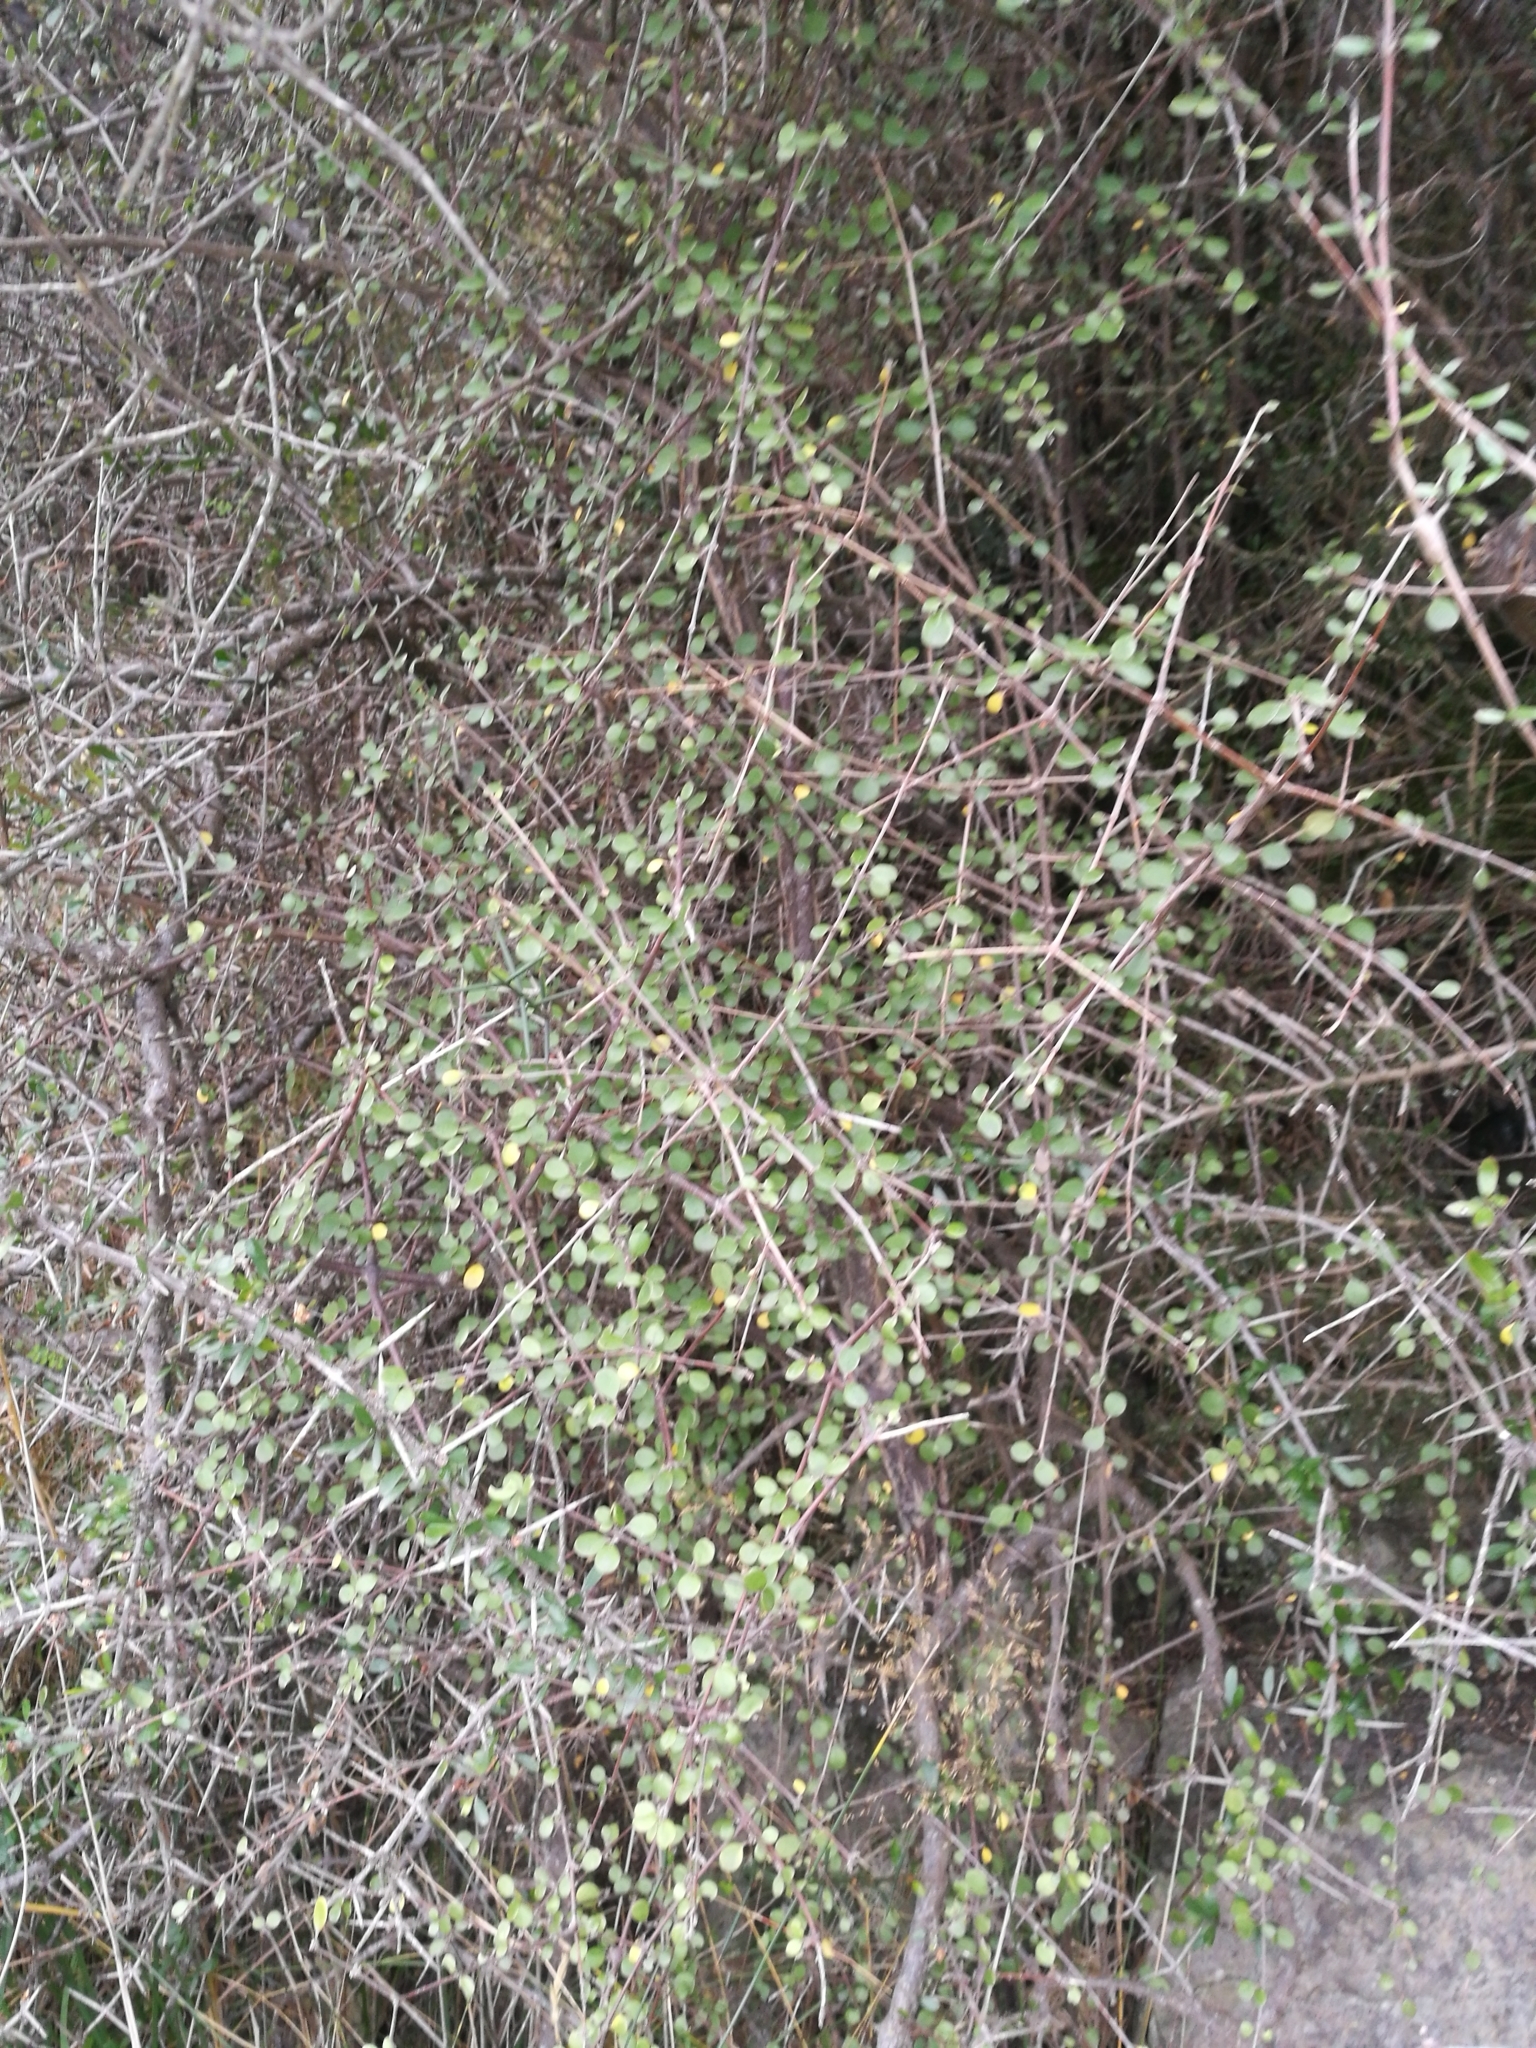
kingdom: Plantae
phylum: Tracheophyta
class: Magnoliopsida
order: Gentianales
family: Rubiaceae
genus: Coprosma
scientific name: Coprosma crassifolia
